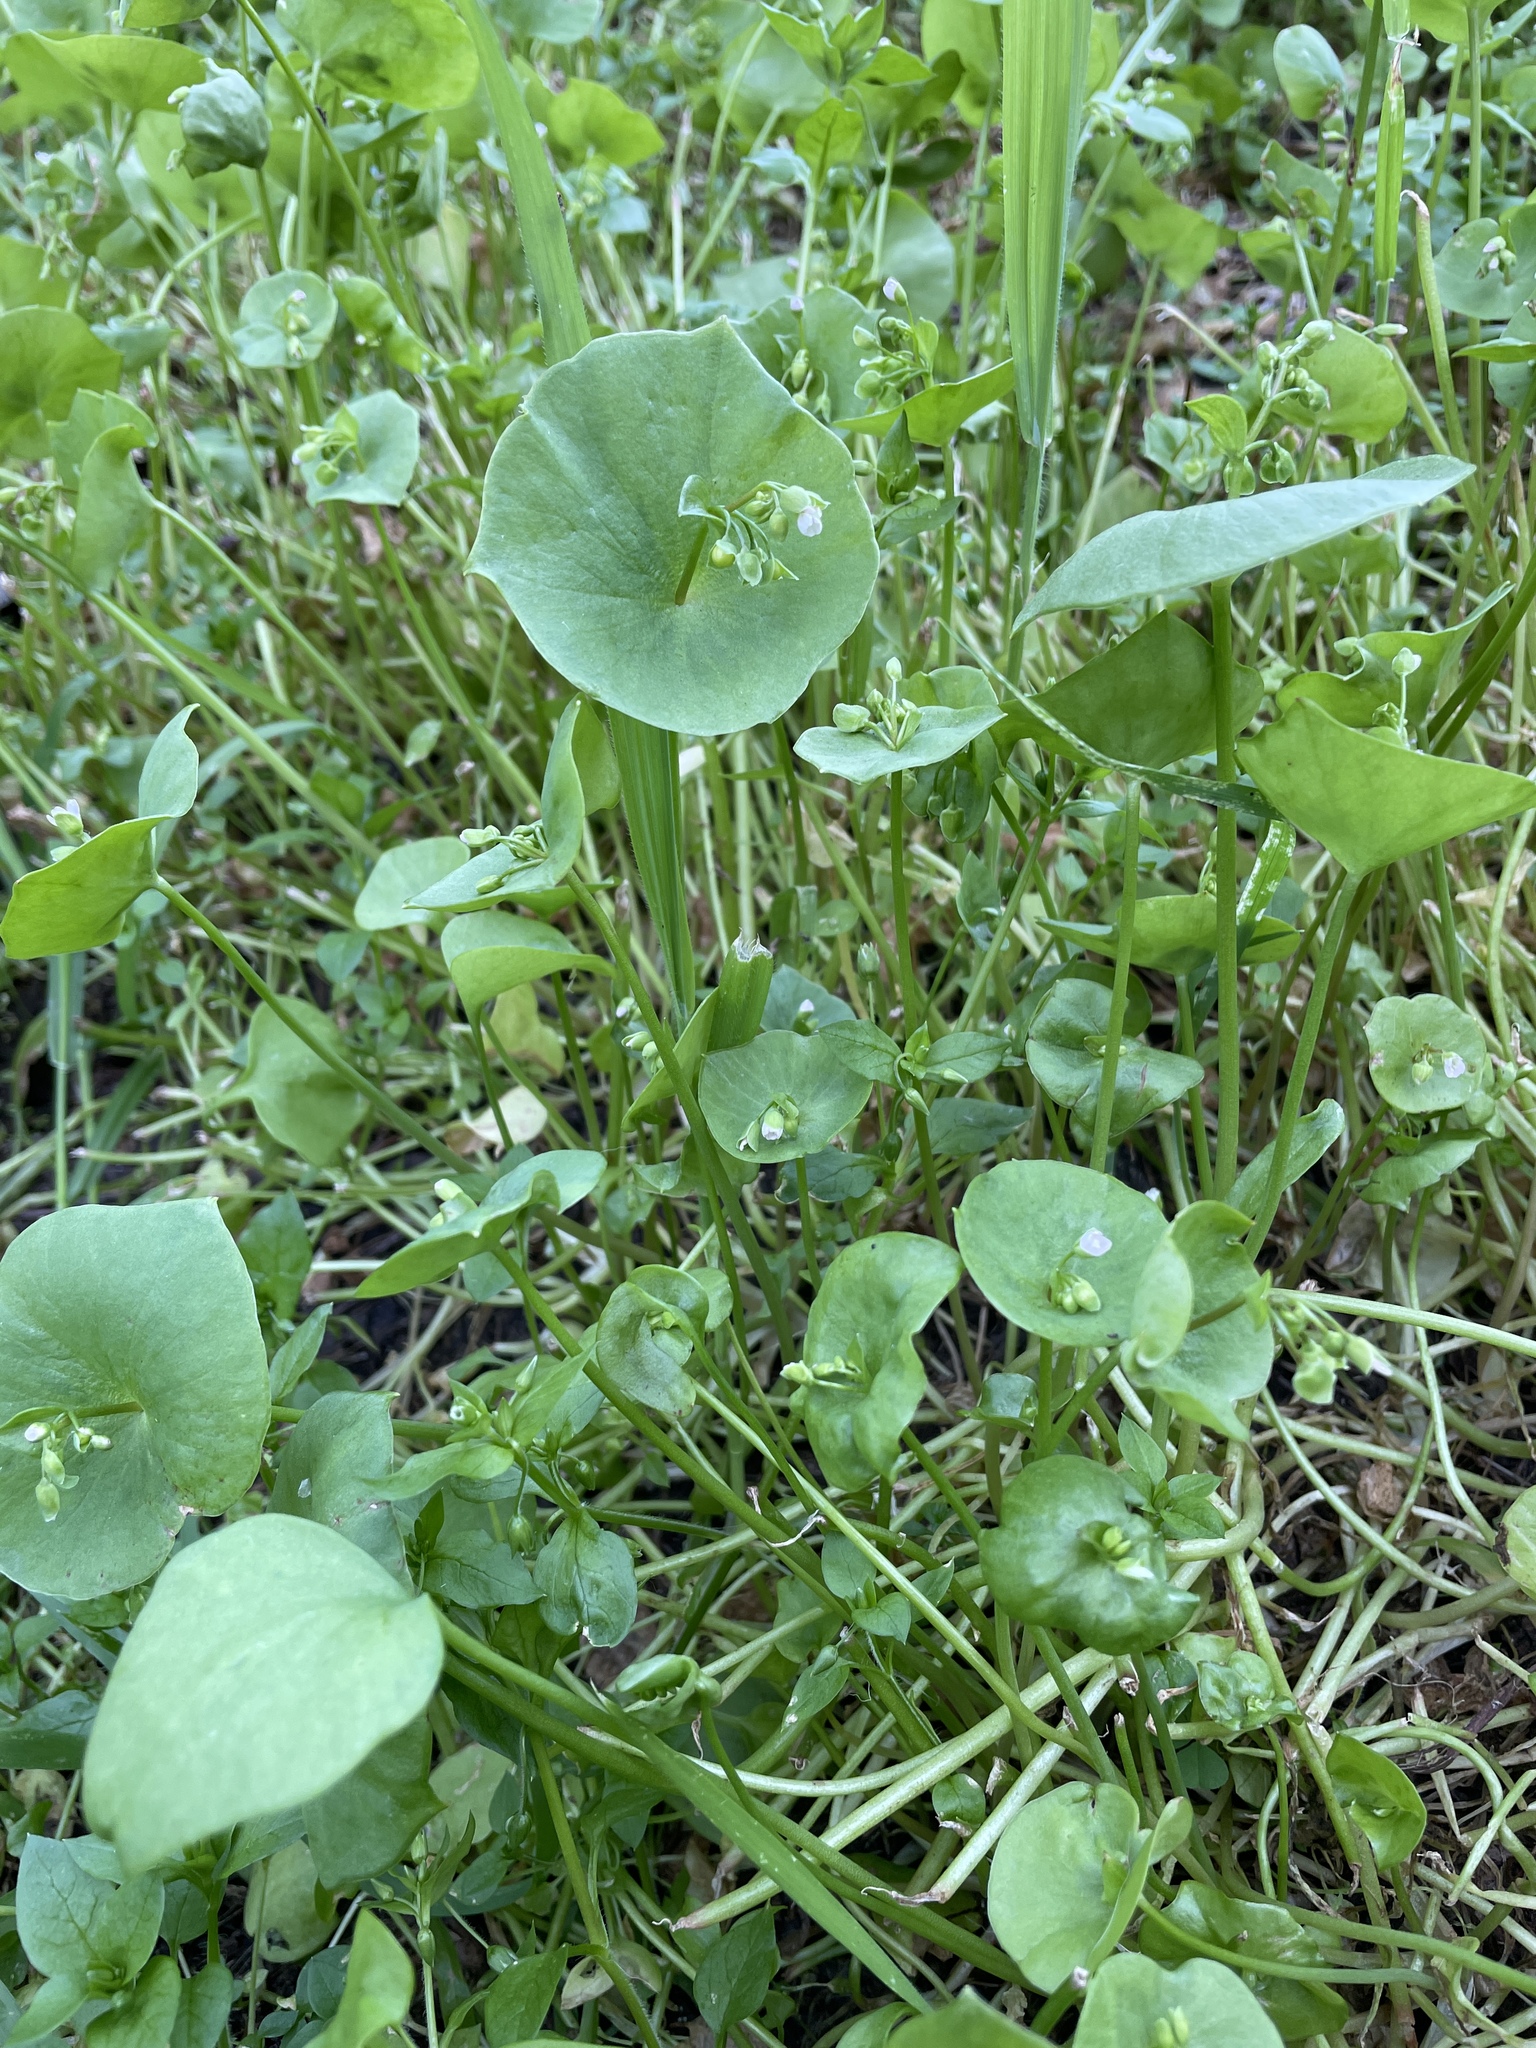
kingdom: Plantae
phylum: Tracheophyta
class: Magnoliopsida
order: Caryophyllales
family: Montiaceae
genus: Claytonia
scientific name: Claytonia perfoliata
